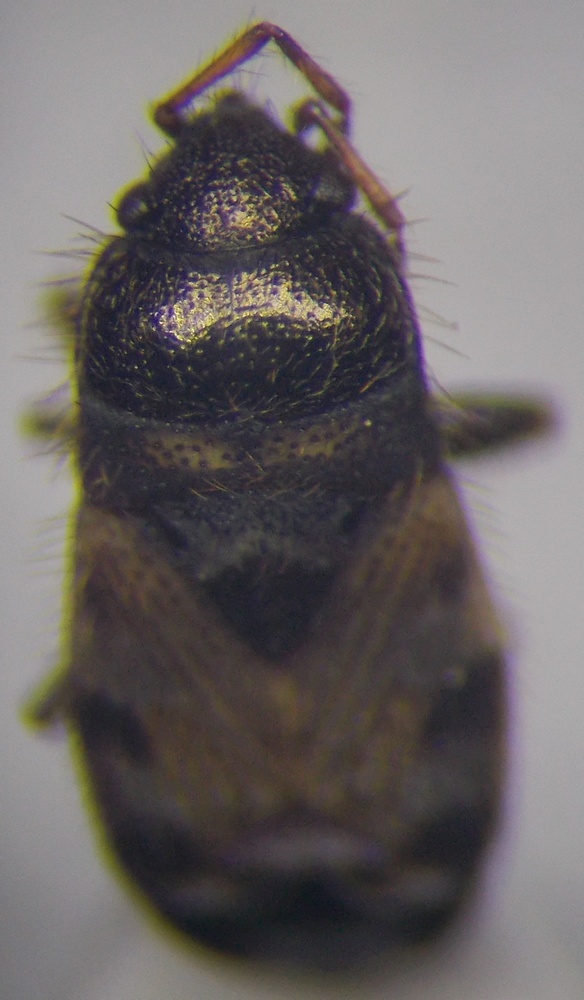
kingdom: Animalia
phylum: Arthropoda
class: Insecta
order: Hemiptera
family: Rhyparochromidae
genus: Pionosomus
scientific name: Pionosomus opacellus
